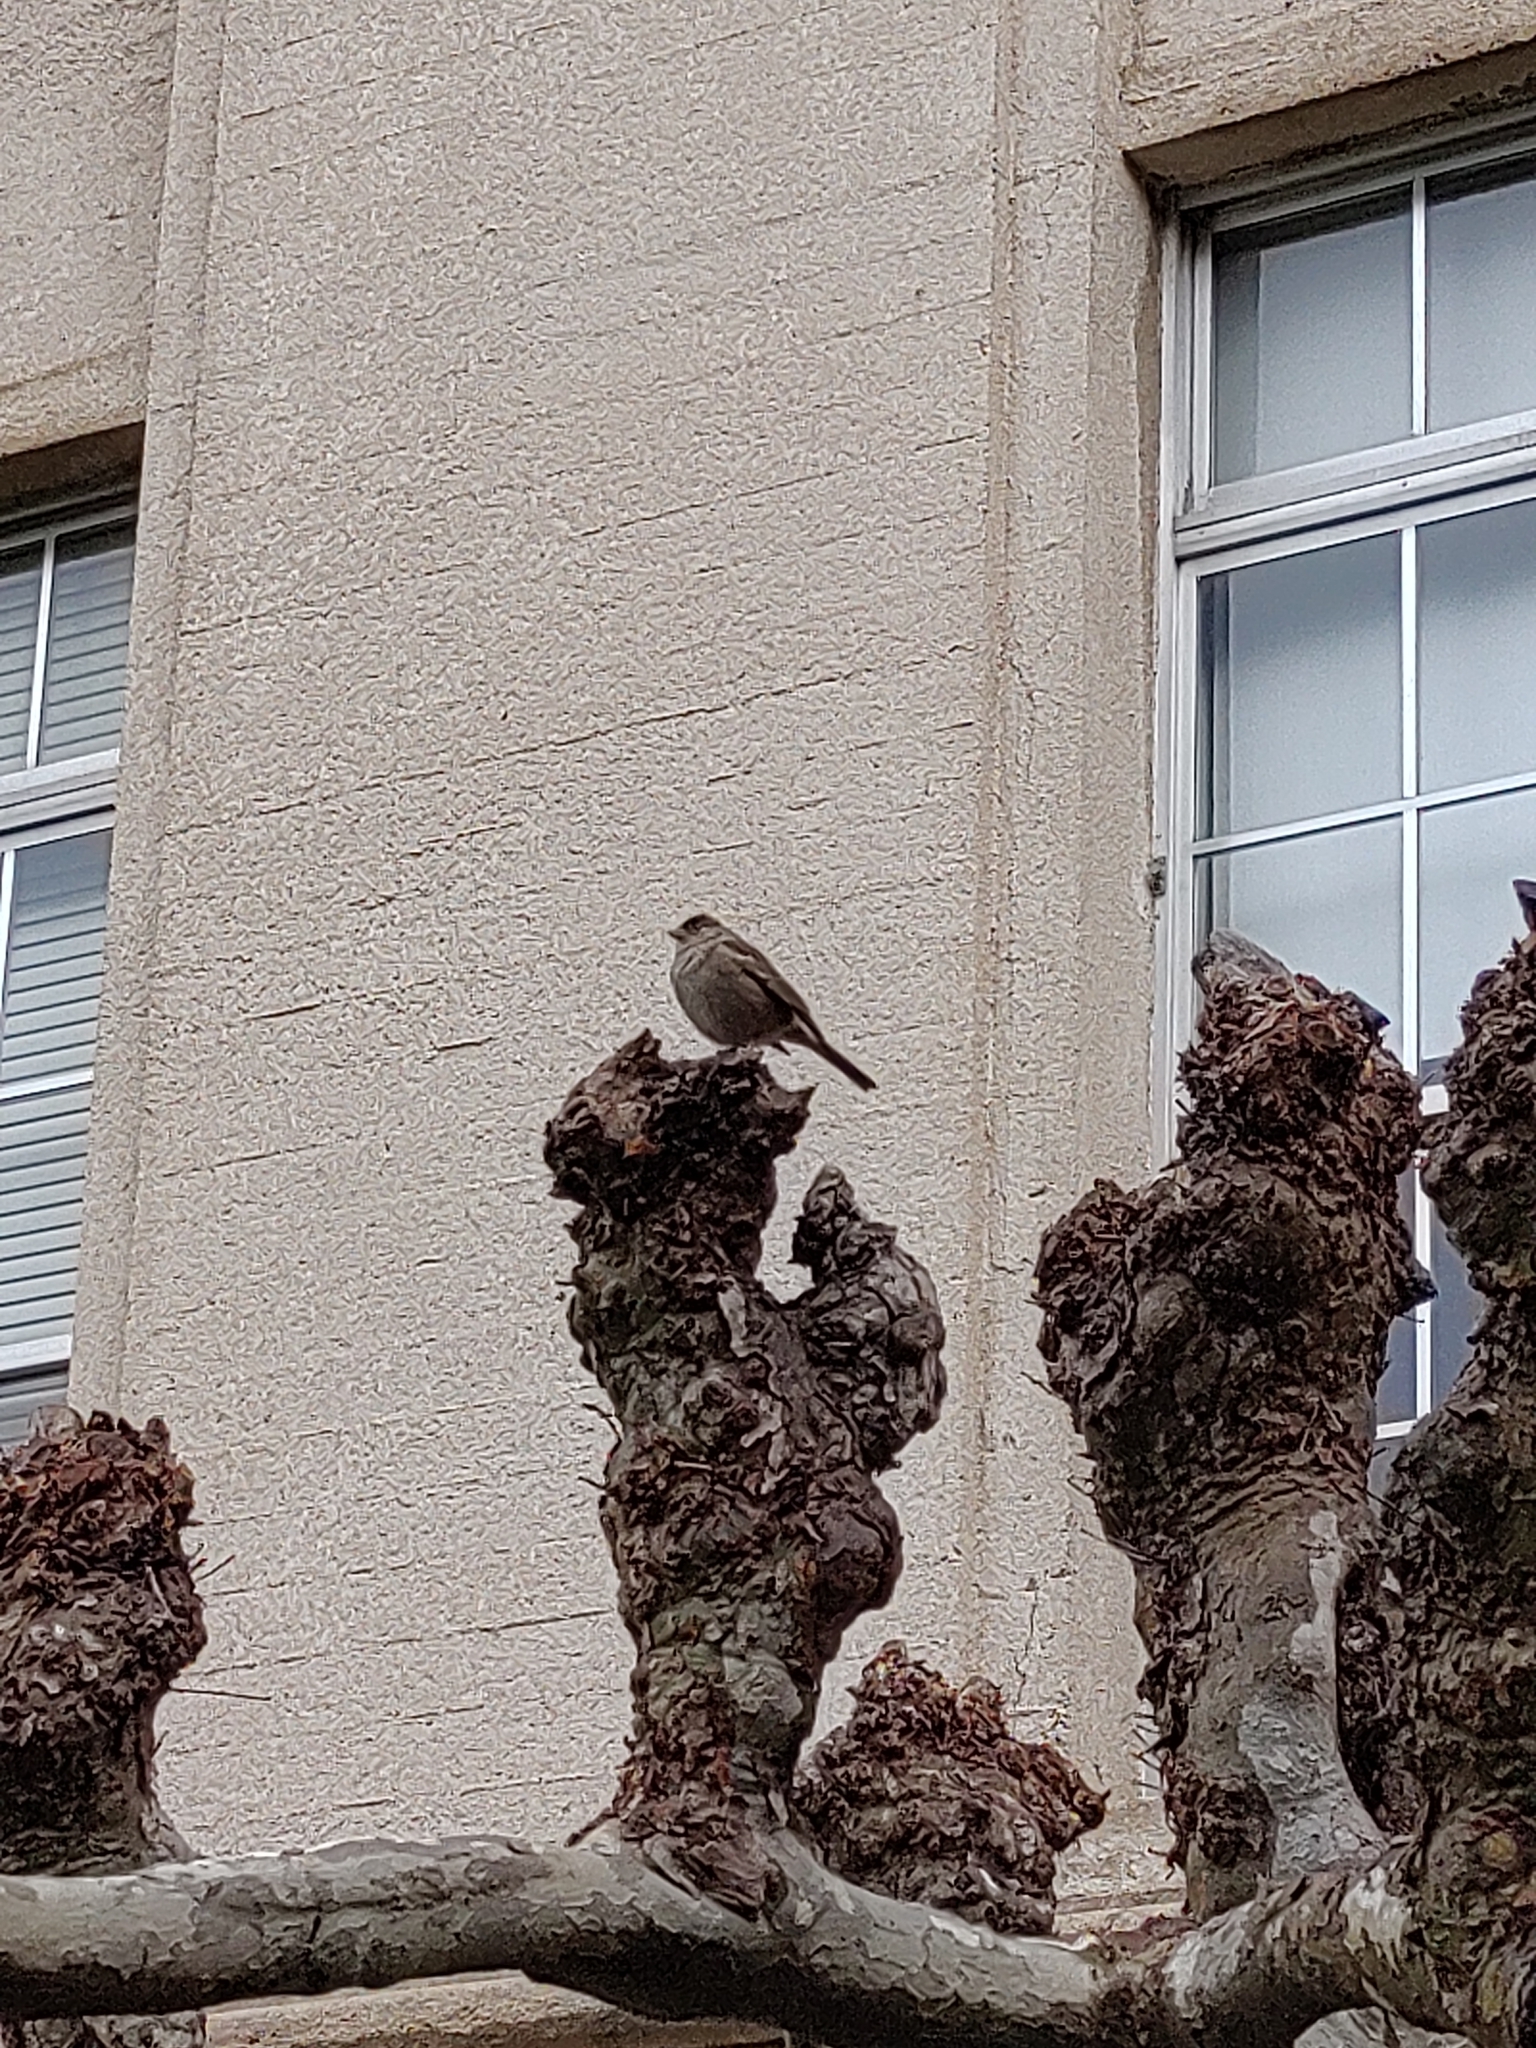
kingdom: Animalia
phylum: Chordata
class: Aves
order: Passeriformes
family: Passerellidae
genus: Melozone
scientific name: Melozone crissalis
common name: California towhee
